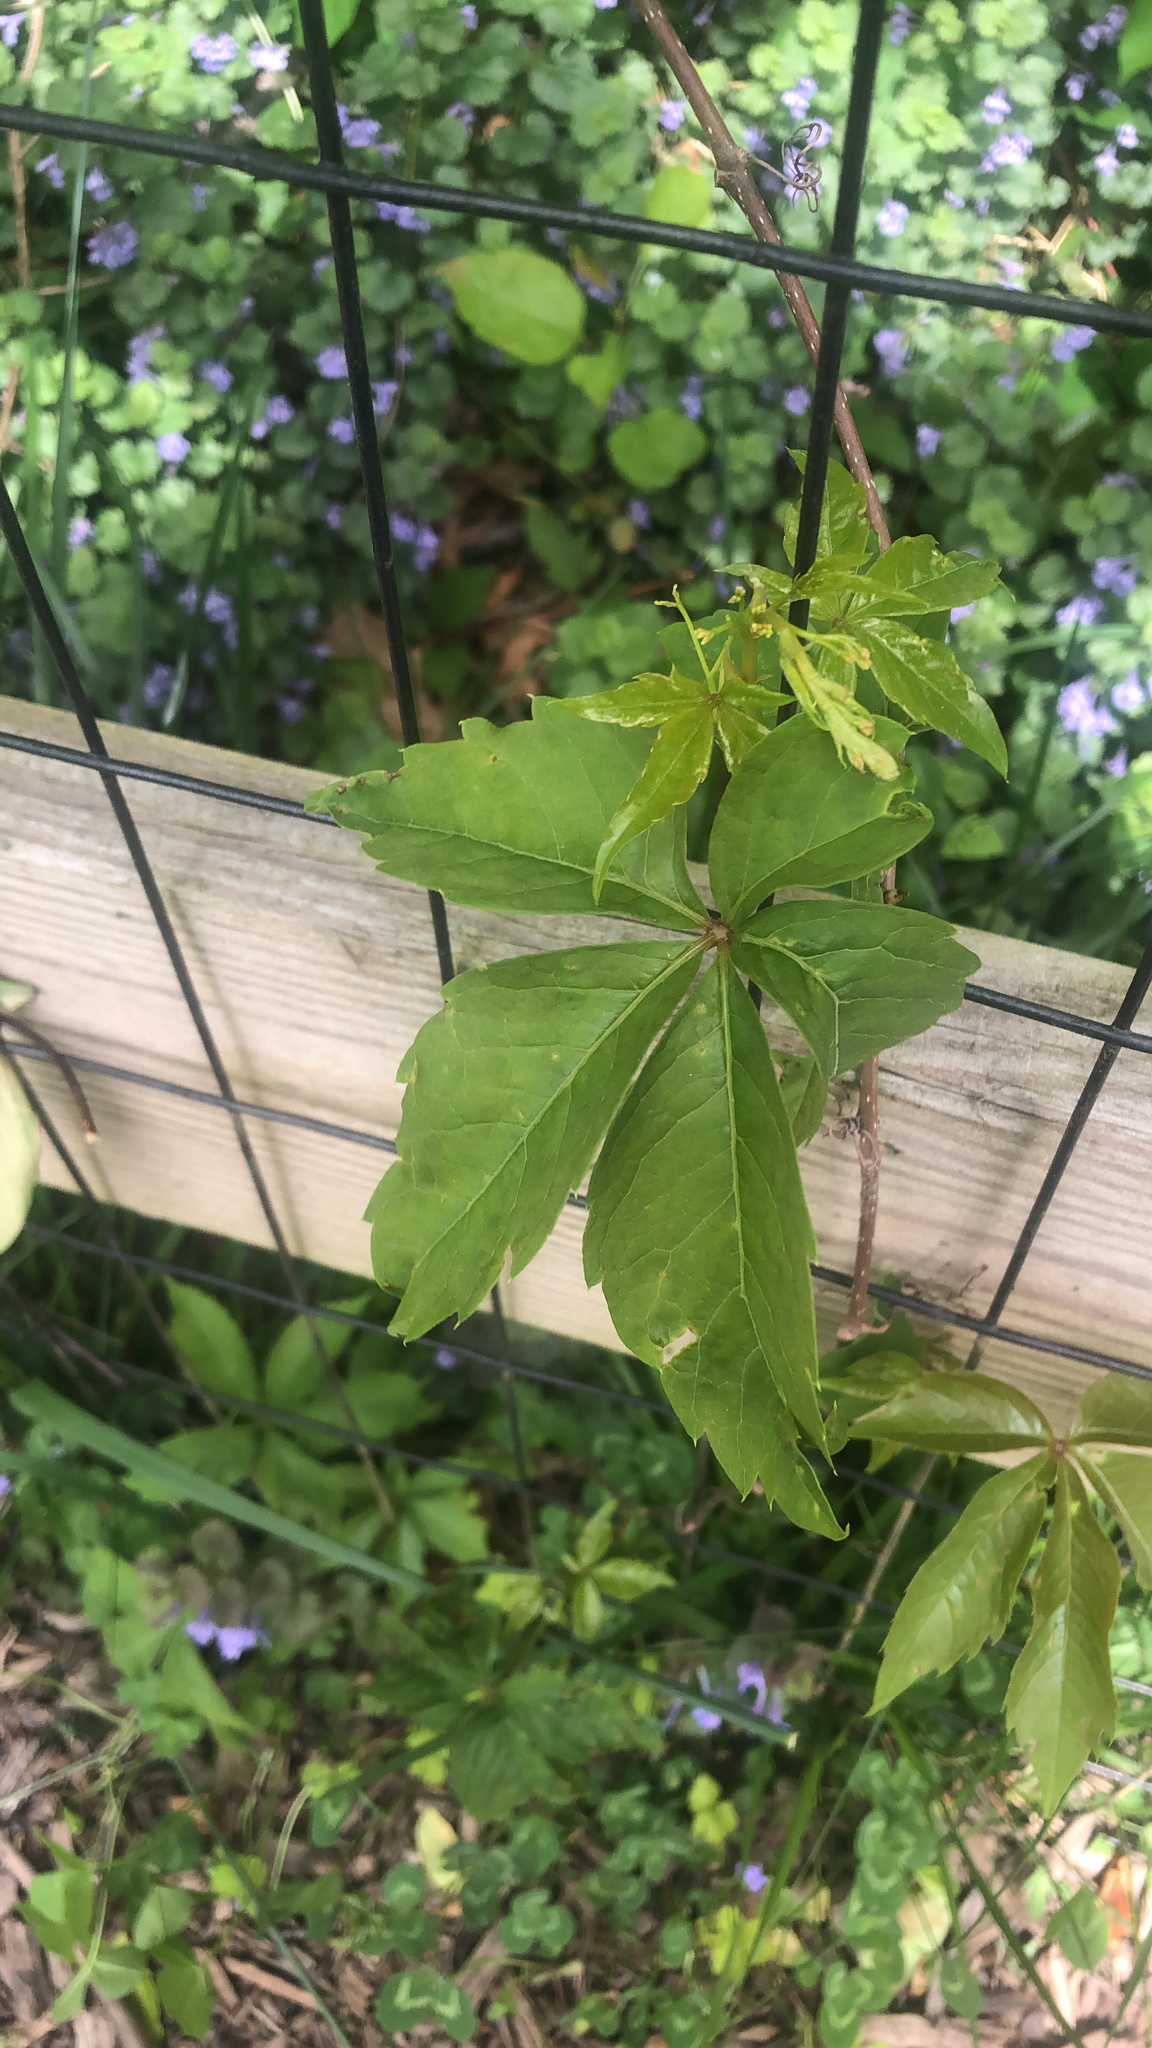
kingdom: Plantae
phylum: Tracheophyta
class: Magnoliopsida
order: Vitales
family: Vitaceae
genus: Parthenocissus
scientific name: Parthenocissus quinquefolia
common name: Virginia-creeper
